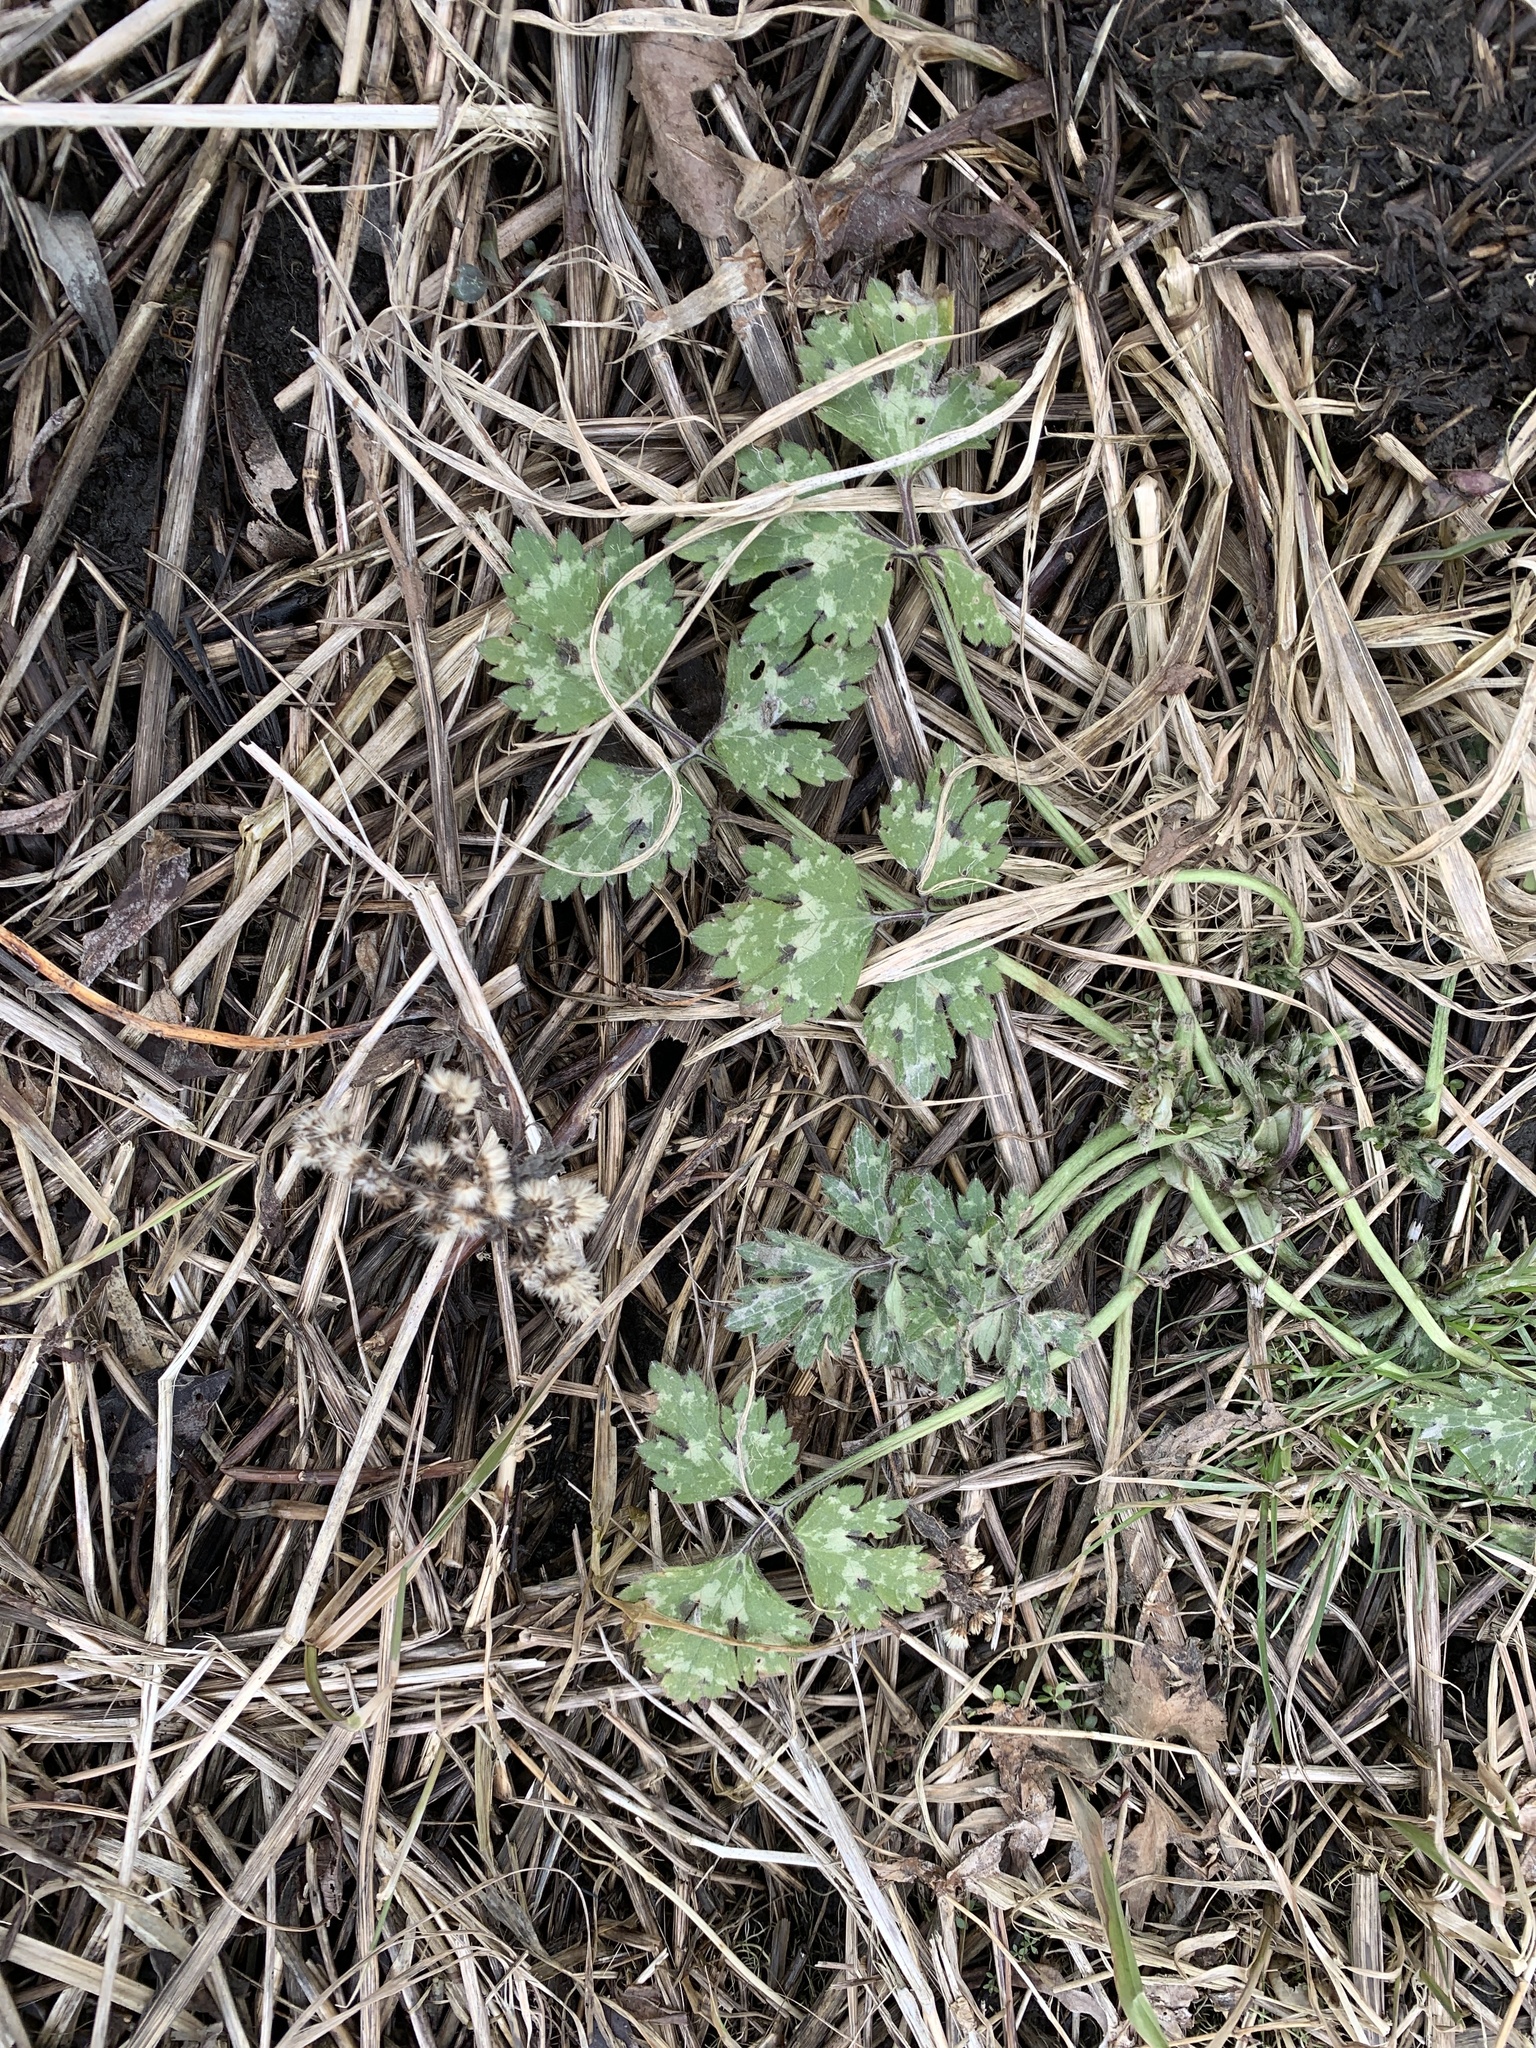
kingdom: Plantae
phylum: Tracheophyta
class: Magnoliopsida
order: Ranunculales
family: Ranunculaceae
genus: Ranunculus
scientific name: Ranunculus repens
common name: Creeping buttercup
